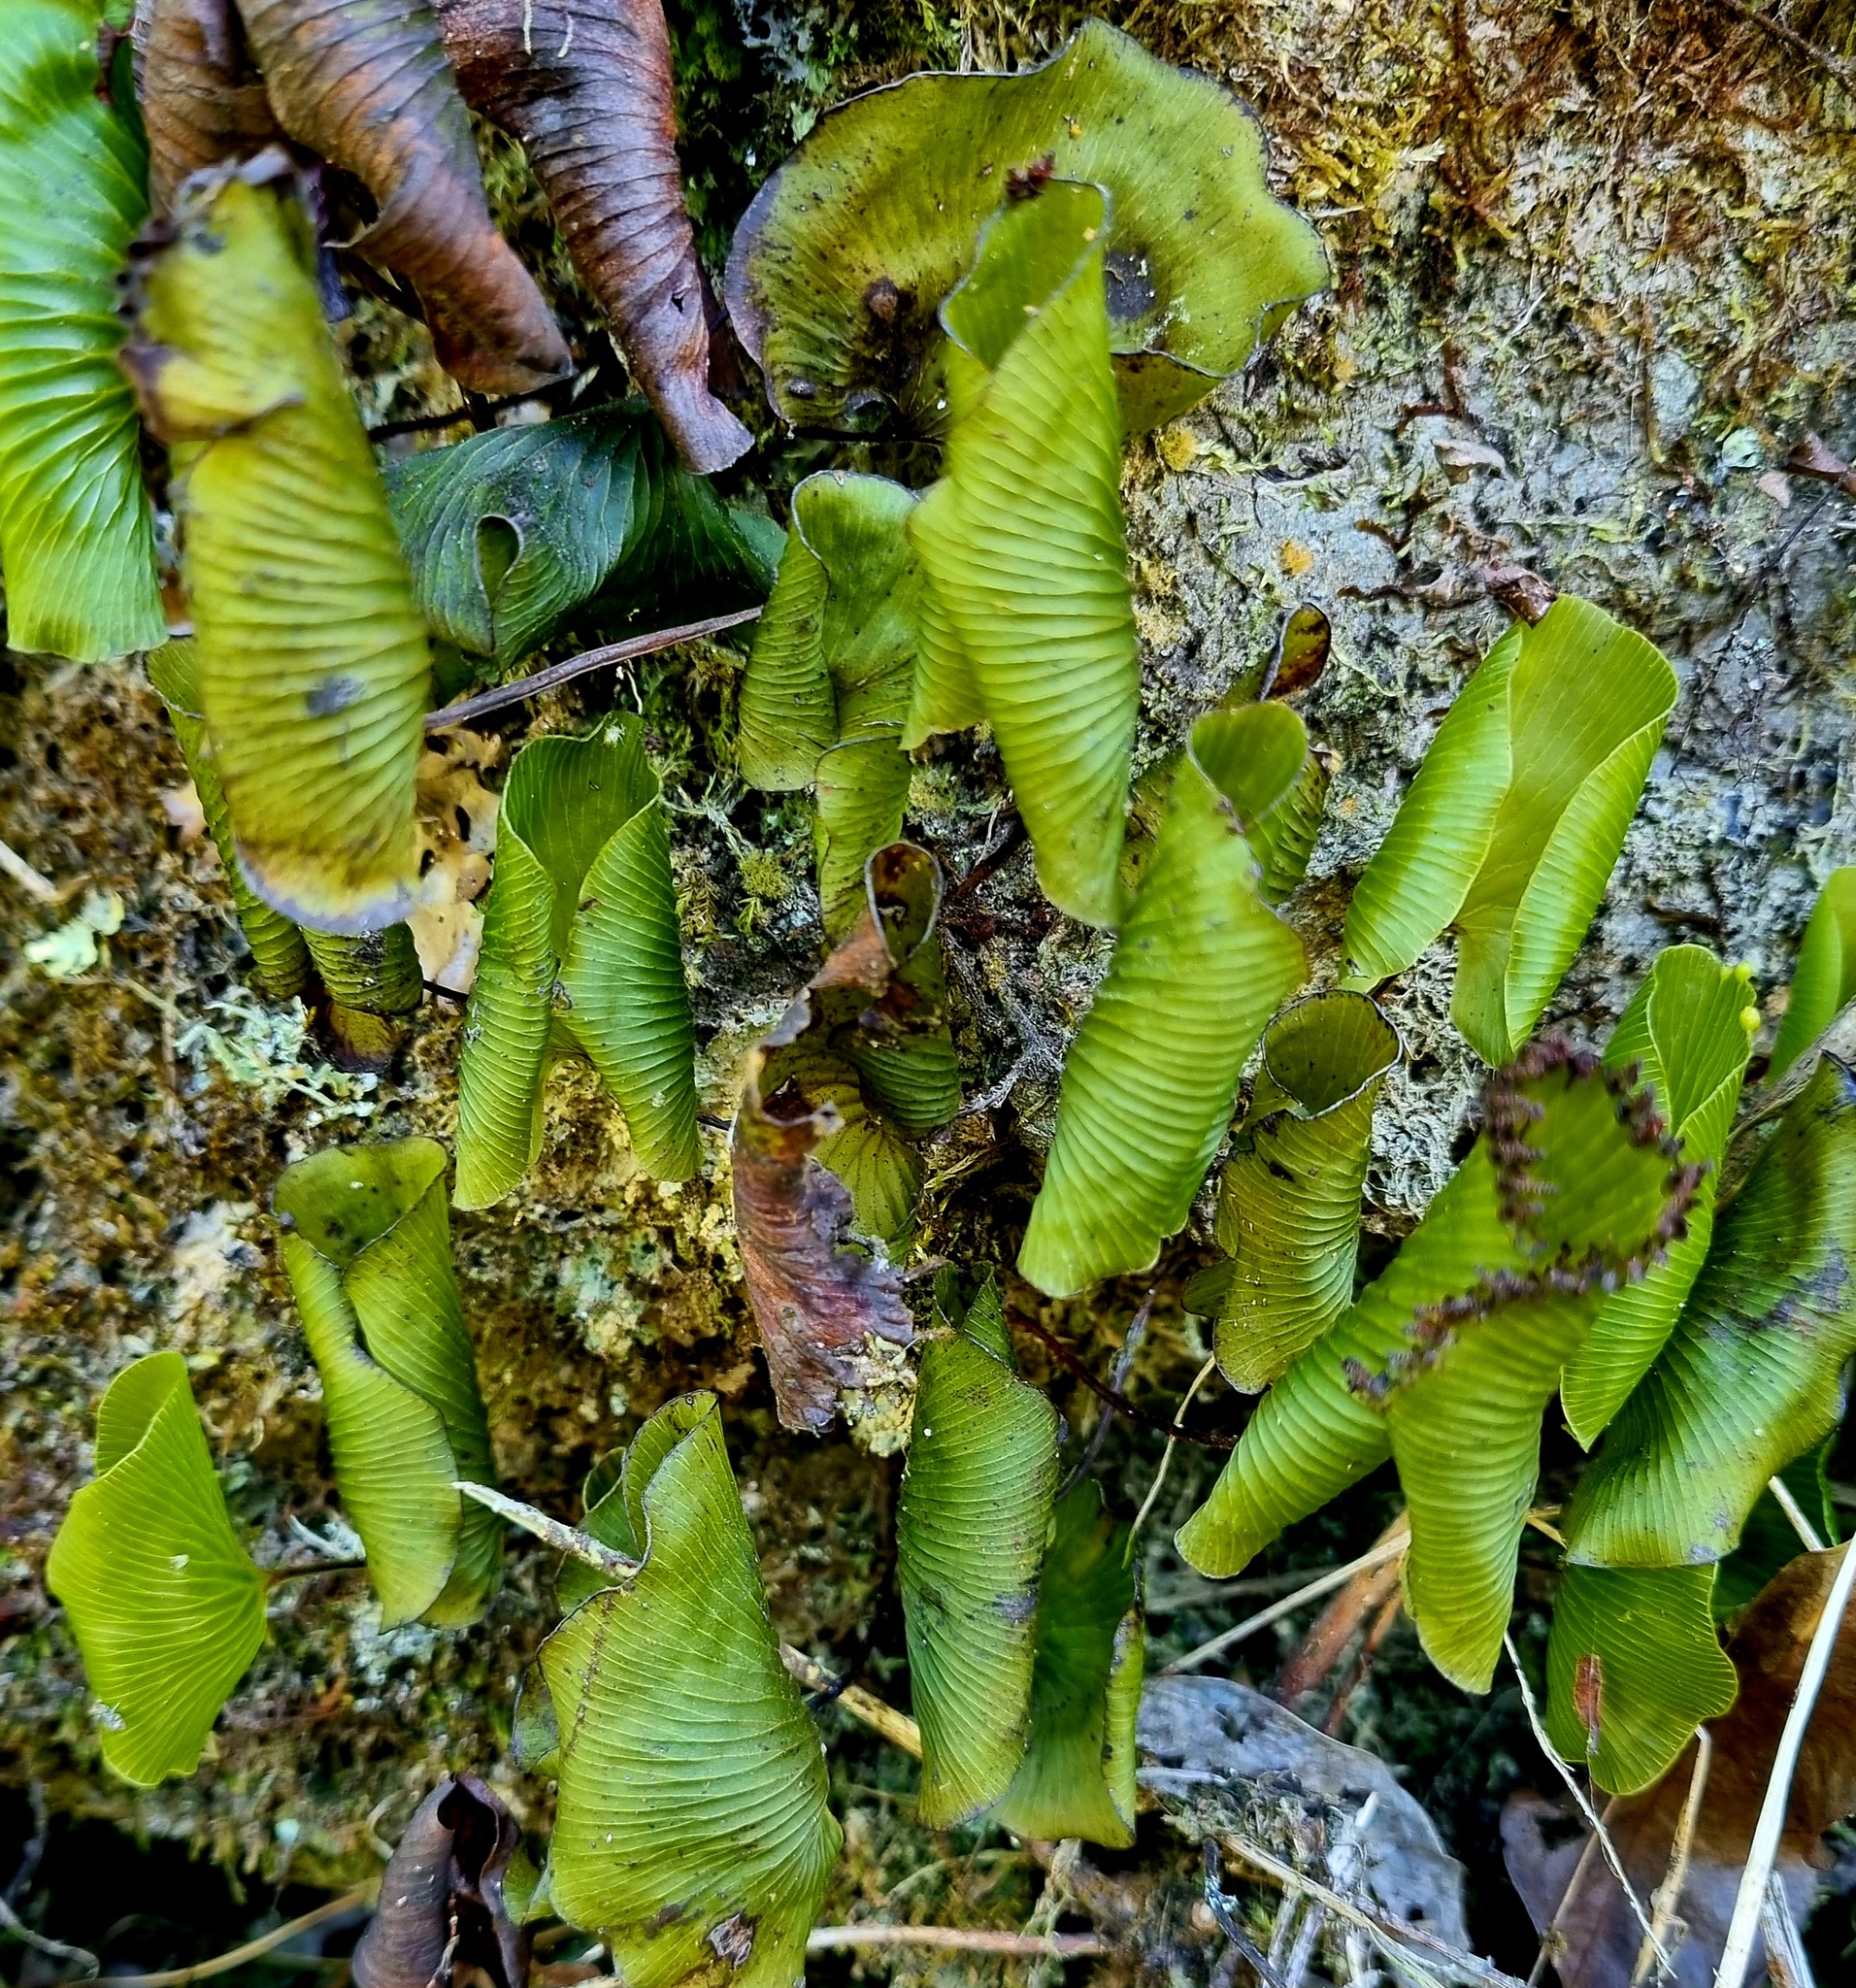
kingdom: Plantae
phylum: Tracheophyta
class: Polypodiopsida
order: Hymenophyllales
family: Hymenophyllaceae
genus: Hymenophyllum
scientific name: Hymenophyllum nephrophyllum
